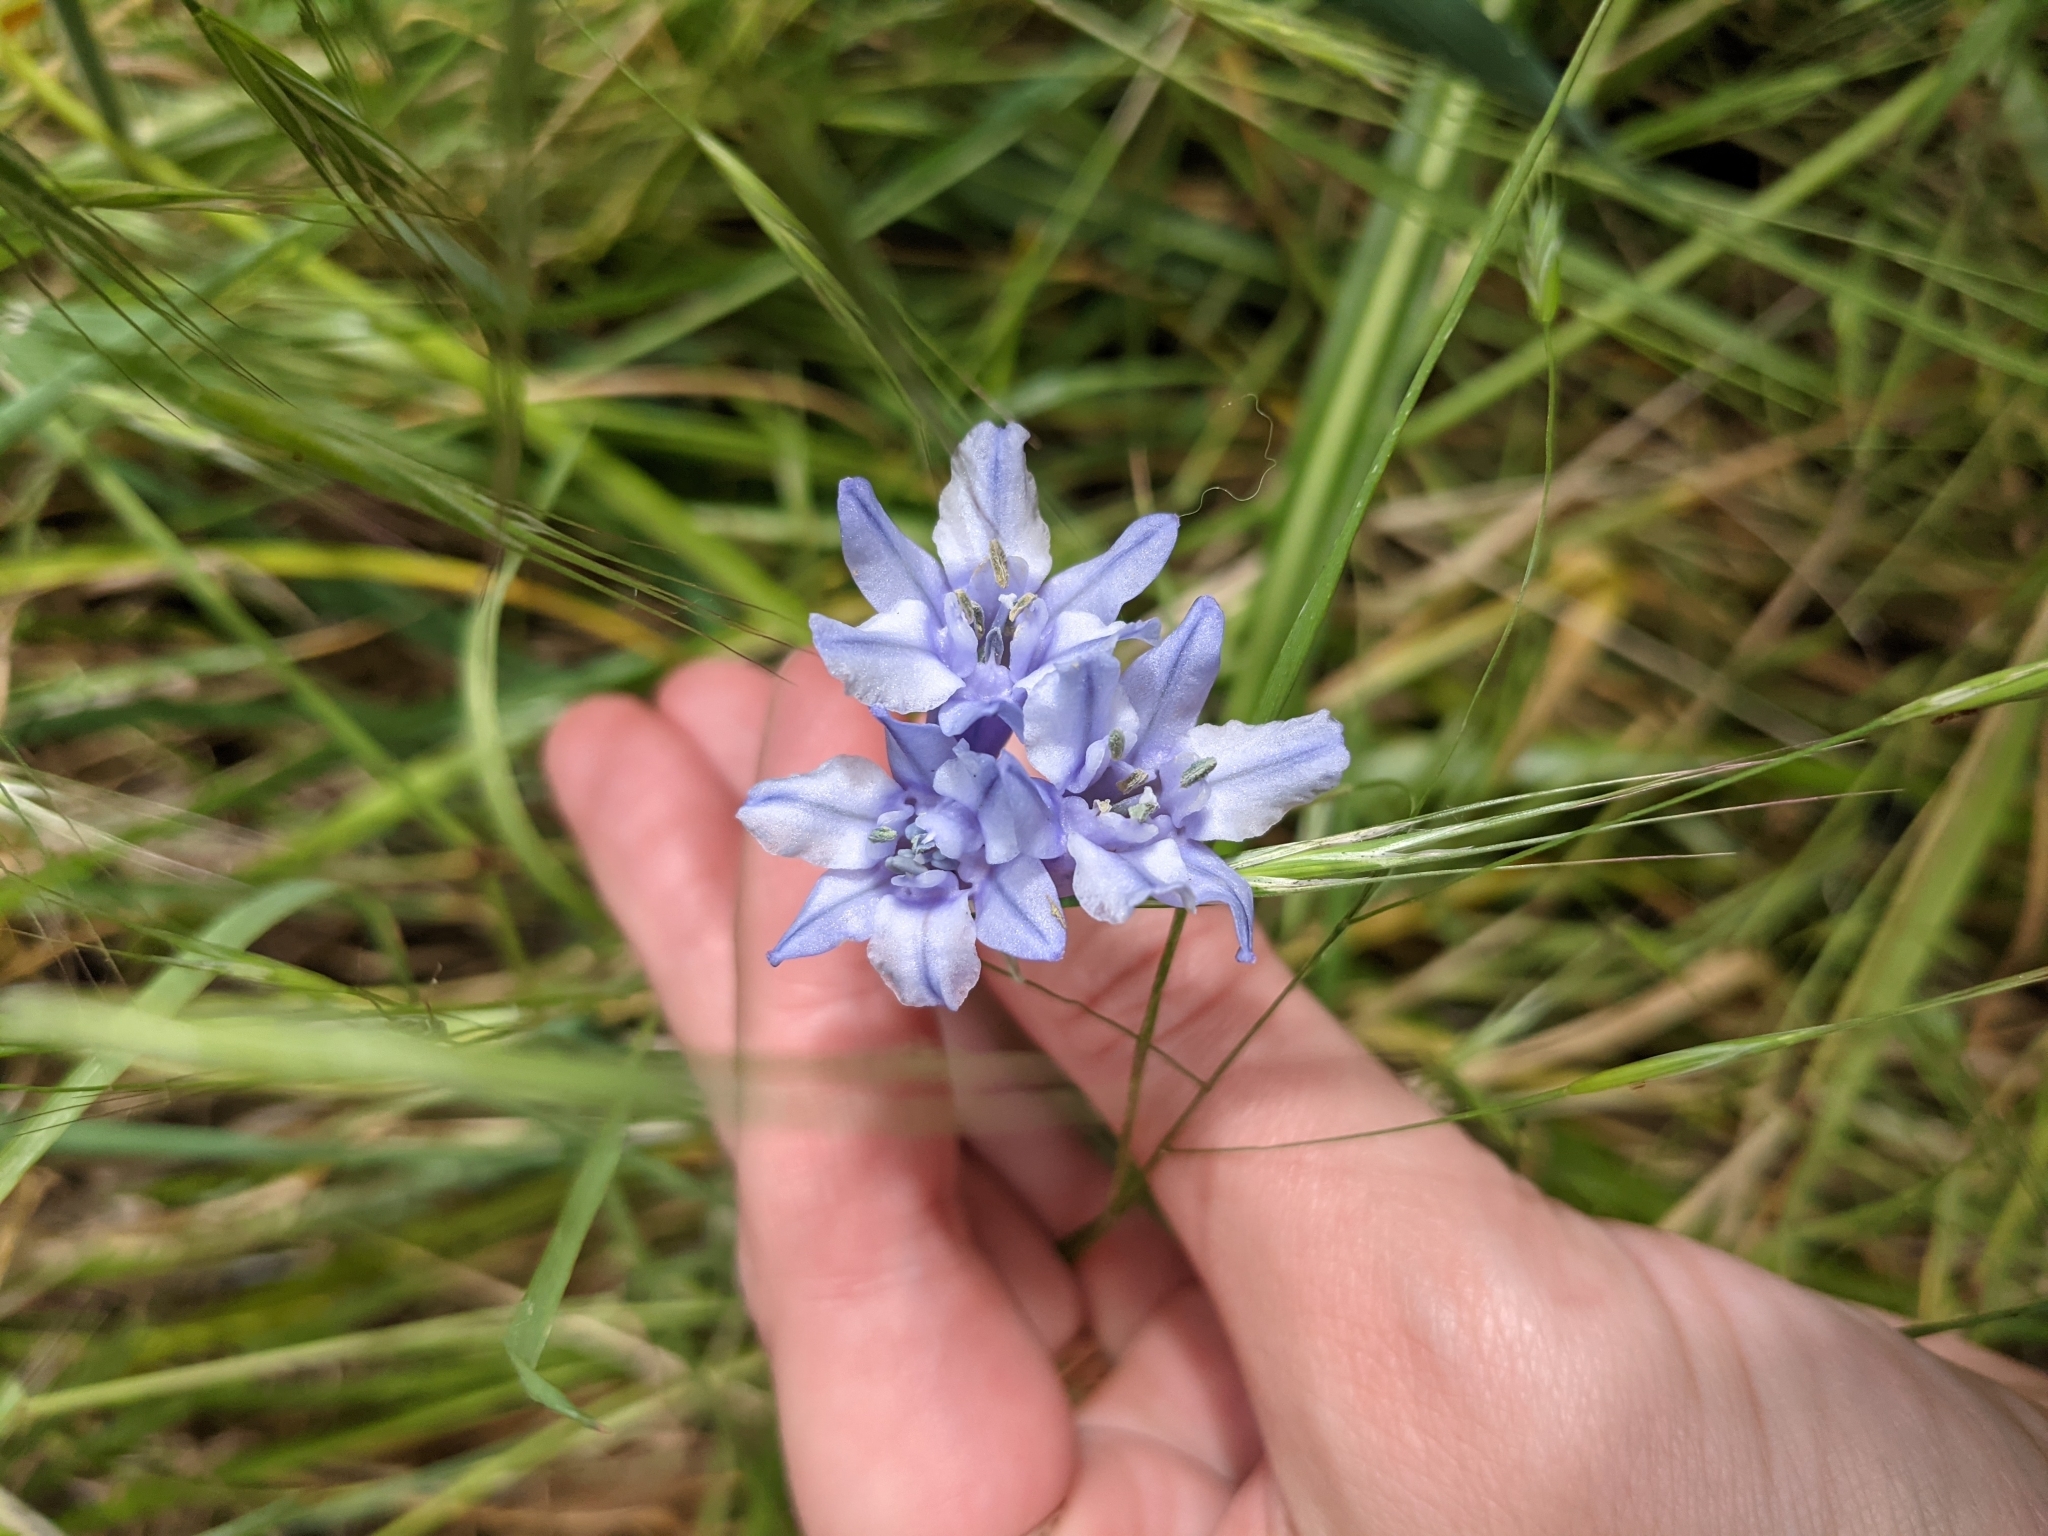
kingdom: Plantae
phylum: Tracheophyta
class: Liliopsida
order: Asparagales
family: Asparagaceae
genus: Triteleia
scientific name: Triteleia grandiflora
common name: Wild hyacinth
